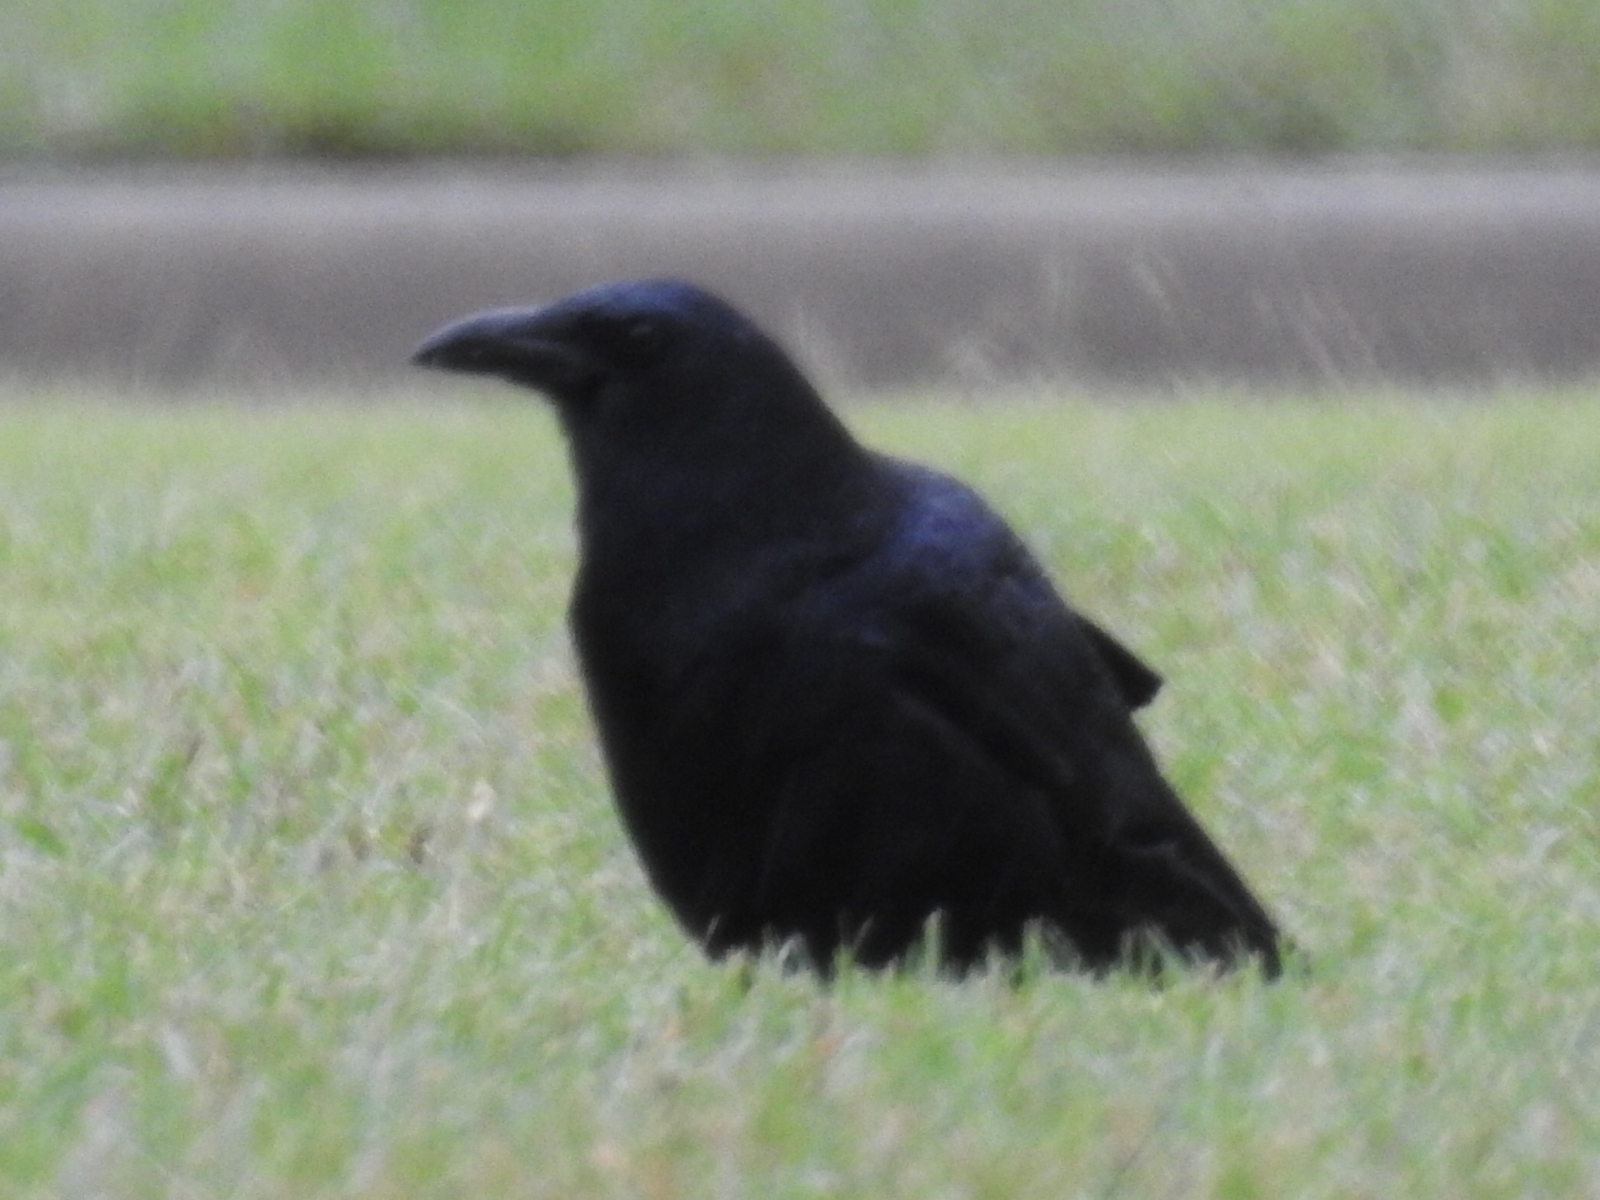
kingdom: Animalia
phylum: Chordata
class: Aves
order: Passeriformes
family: Corvidae
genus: Corvus
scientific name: Corvus brachyrhynchos
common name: American crow
